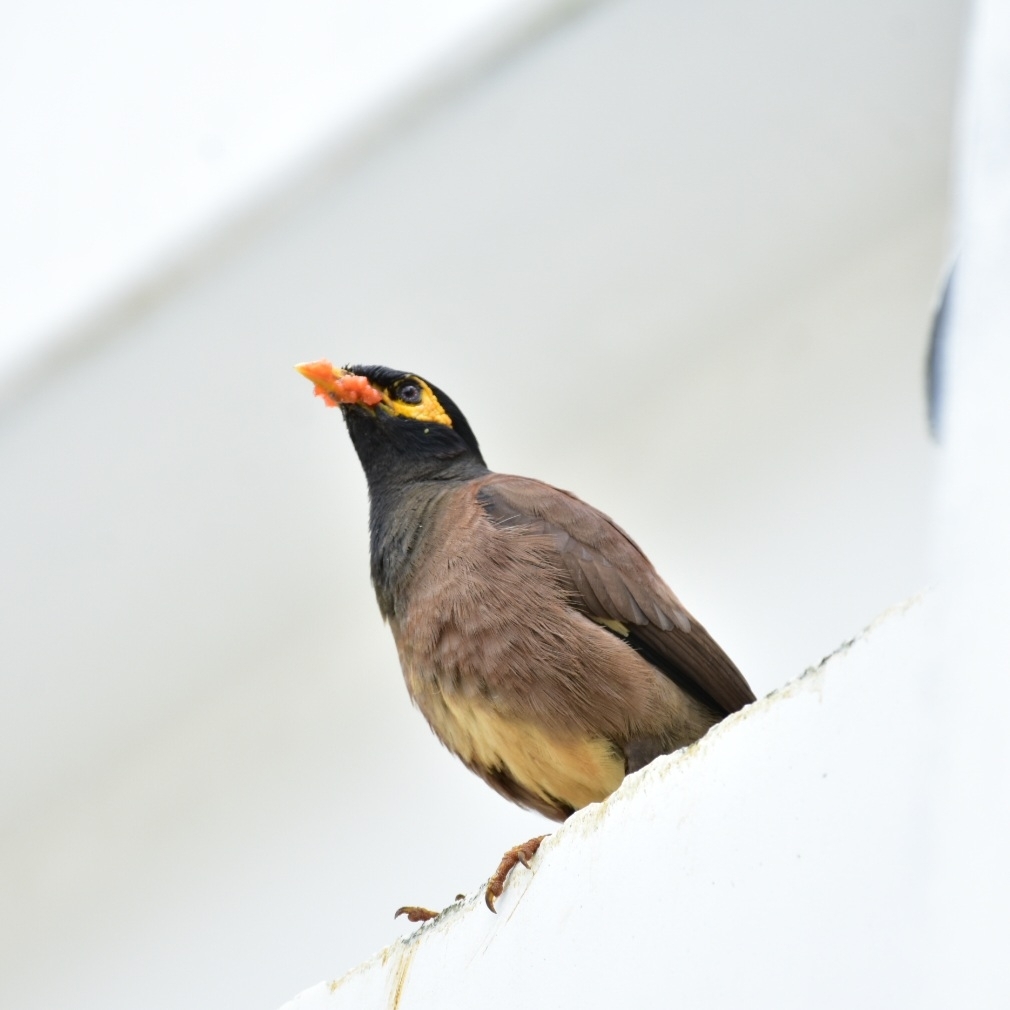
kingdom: Animalia
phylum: Chordata
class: Aves
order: Passeriformes
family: Sturnidae
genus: Acridotheres
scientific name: Acridotheres tristis
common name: Common myna
